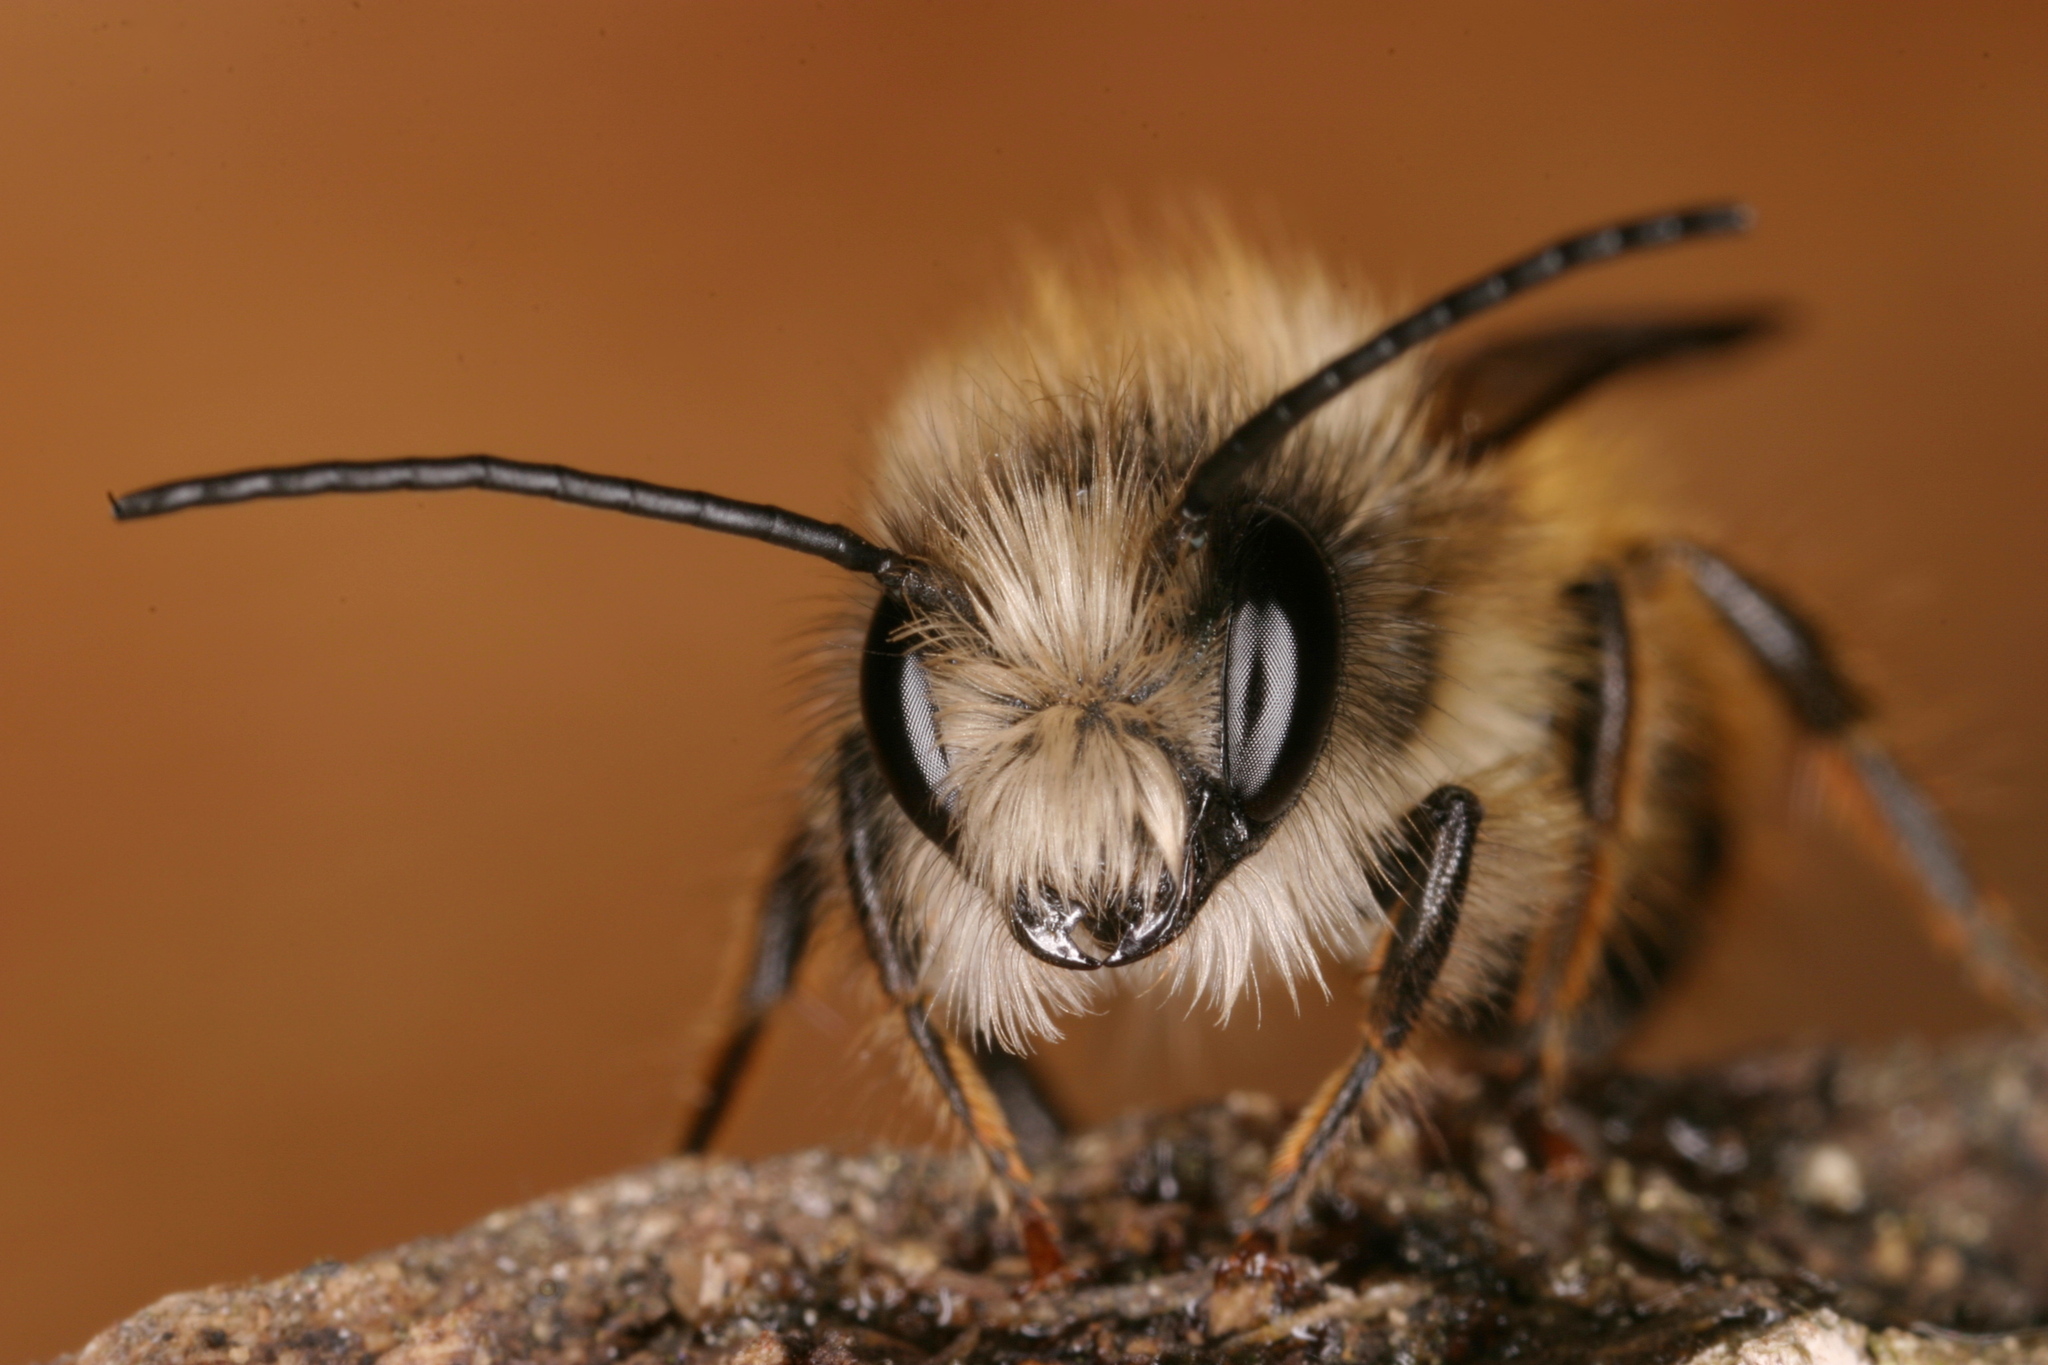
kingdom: Animalia
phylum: Arthropoda
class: Insecta
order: Hymenoptera
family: Megachilidae
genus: Osmia
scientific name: Osmia bicornis
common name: Red mason bee
